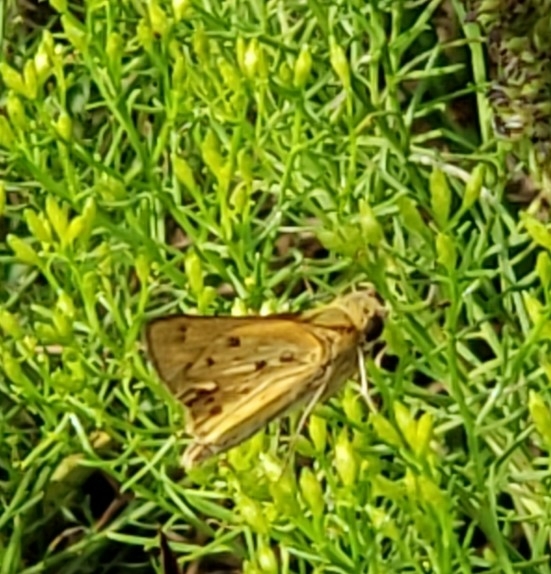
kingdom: Animalia
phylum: Arthropoda
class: Insecta
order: Lepidoptera
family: Hesperiidae
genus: Hylephila
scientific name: Hylephila phyleus
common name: Fiery skipper
